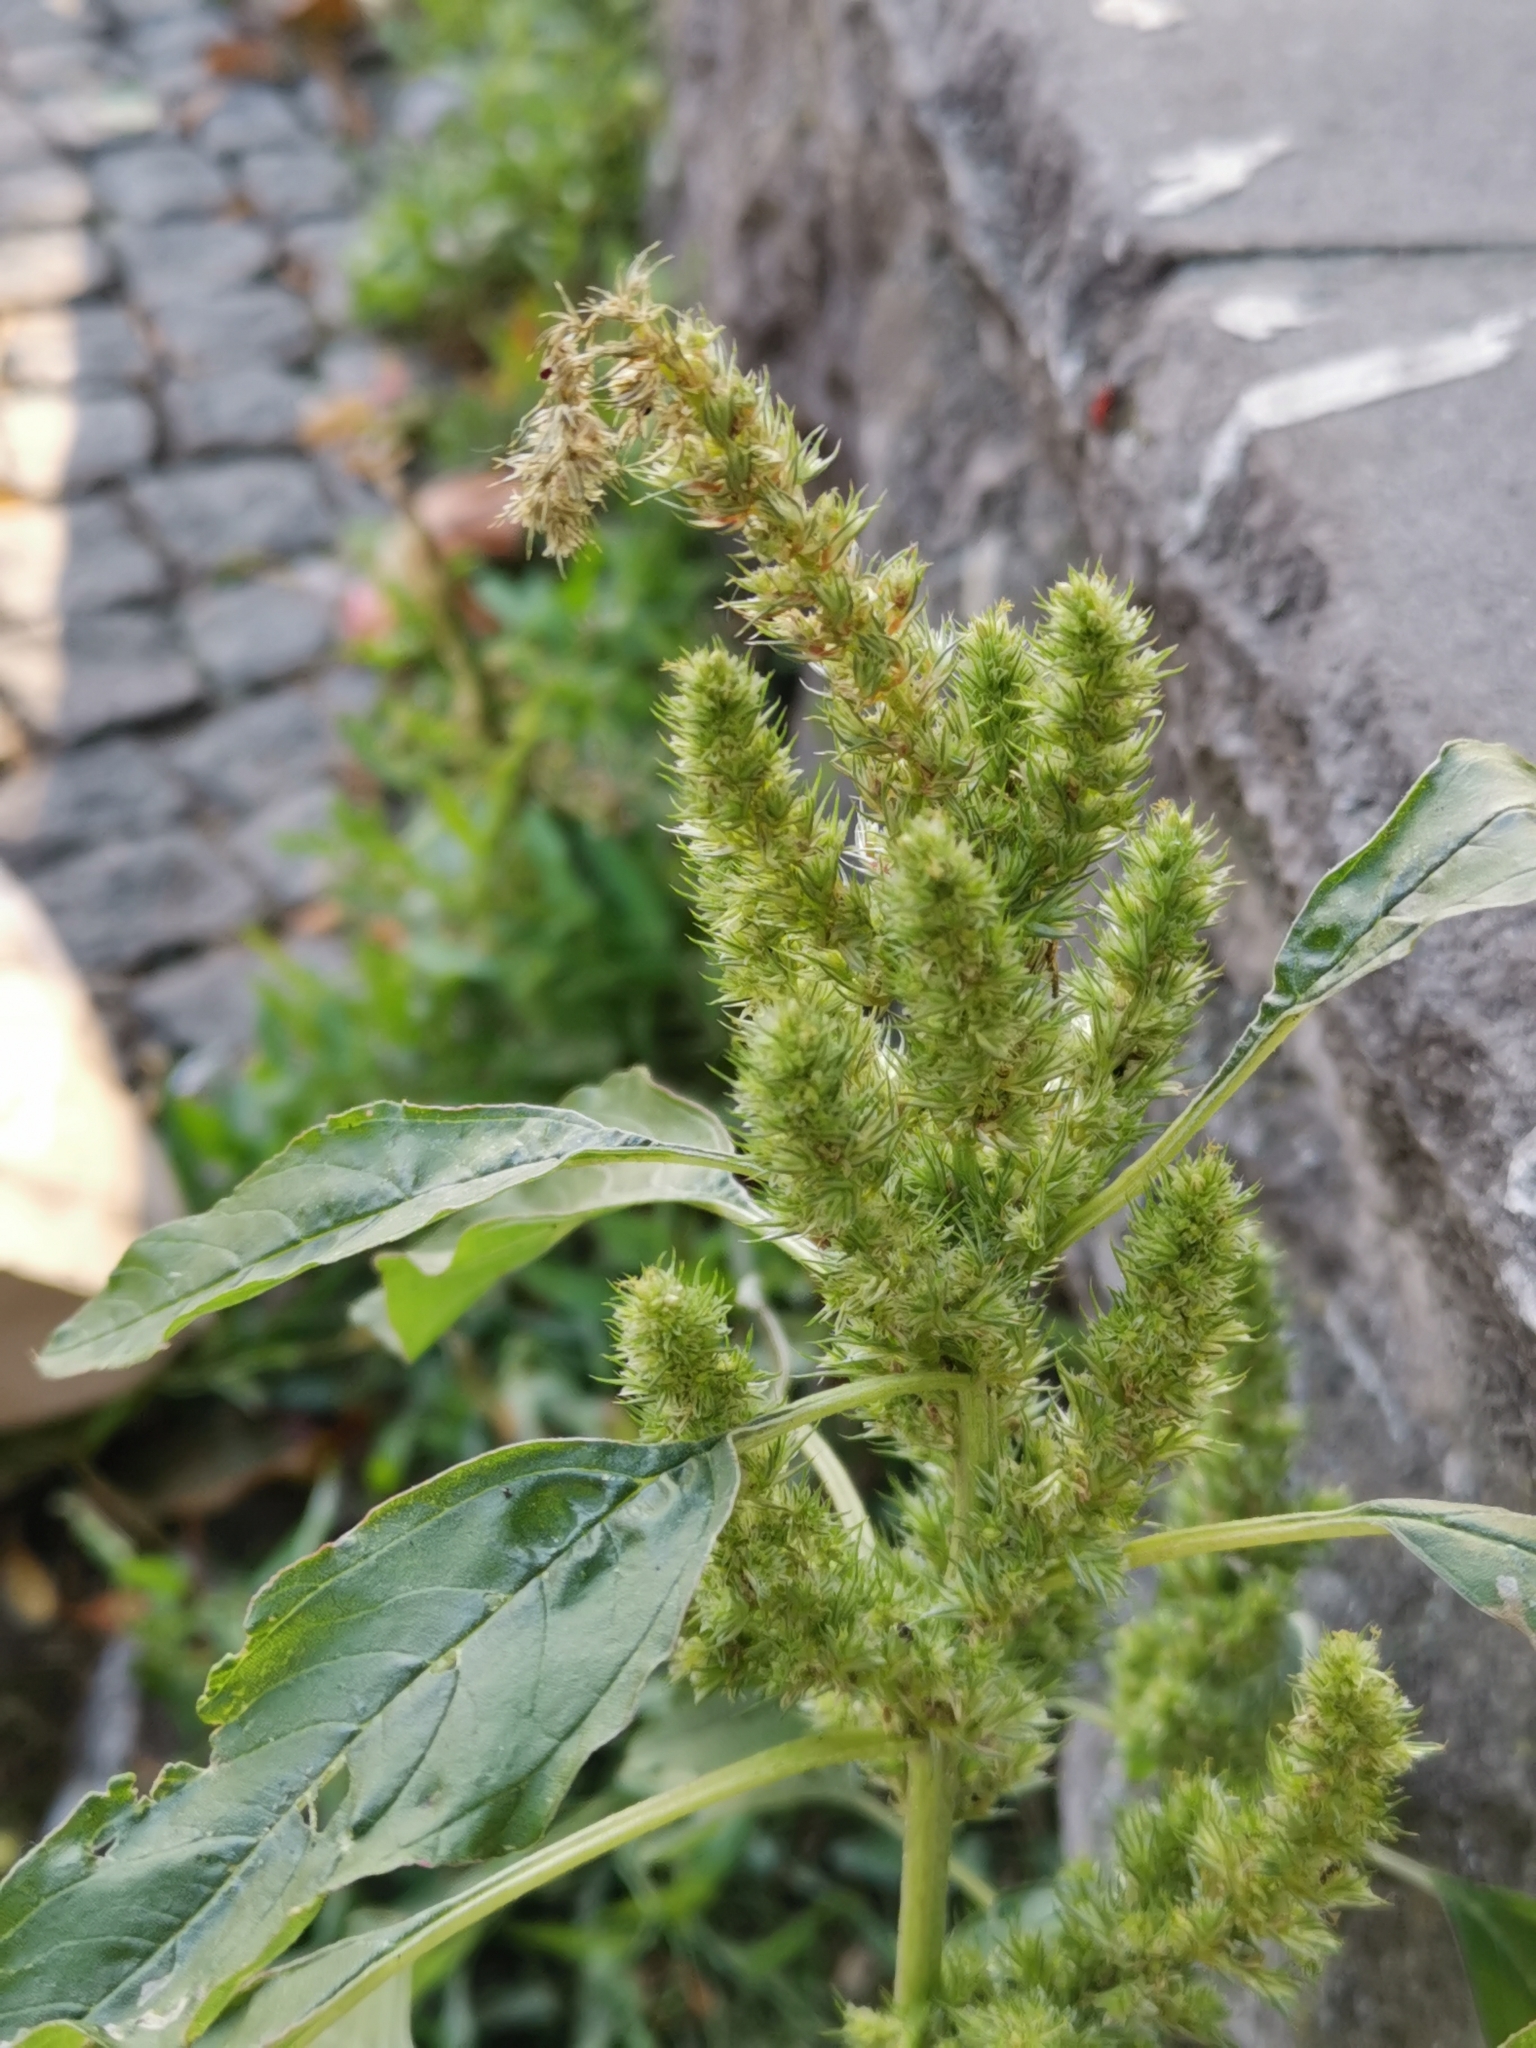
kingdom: Plantae
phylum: Tracheophyta
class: Magnoliopsida
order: Caryophyllales
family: Amaranthaceae
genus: Amaranthus
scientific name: Amaranthus retroflexus
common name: Redroot amaranth
